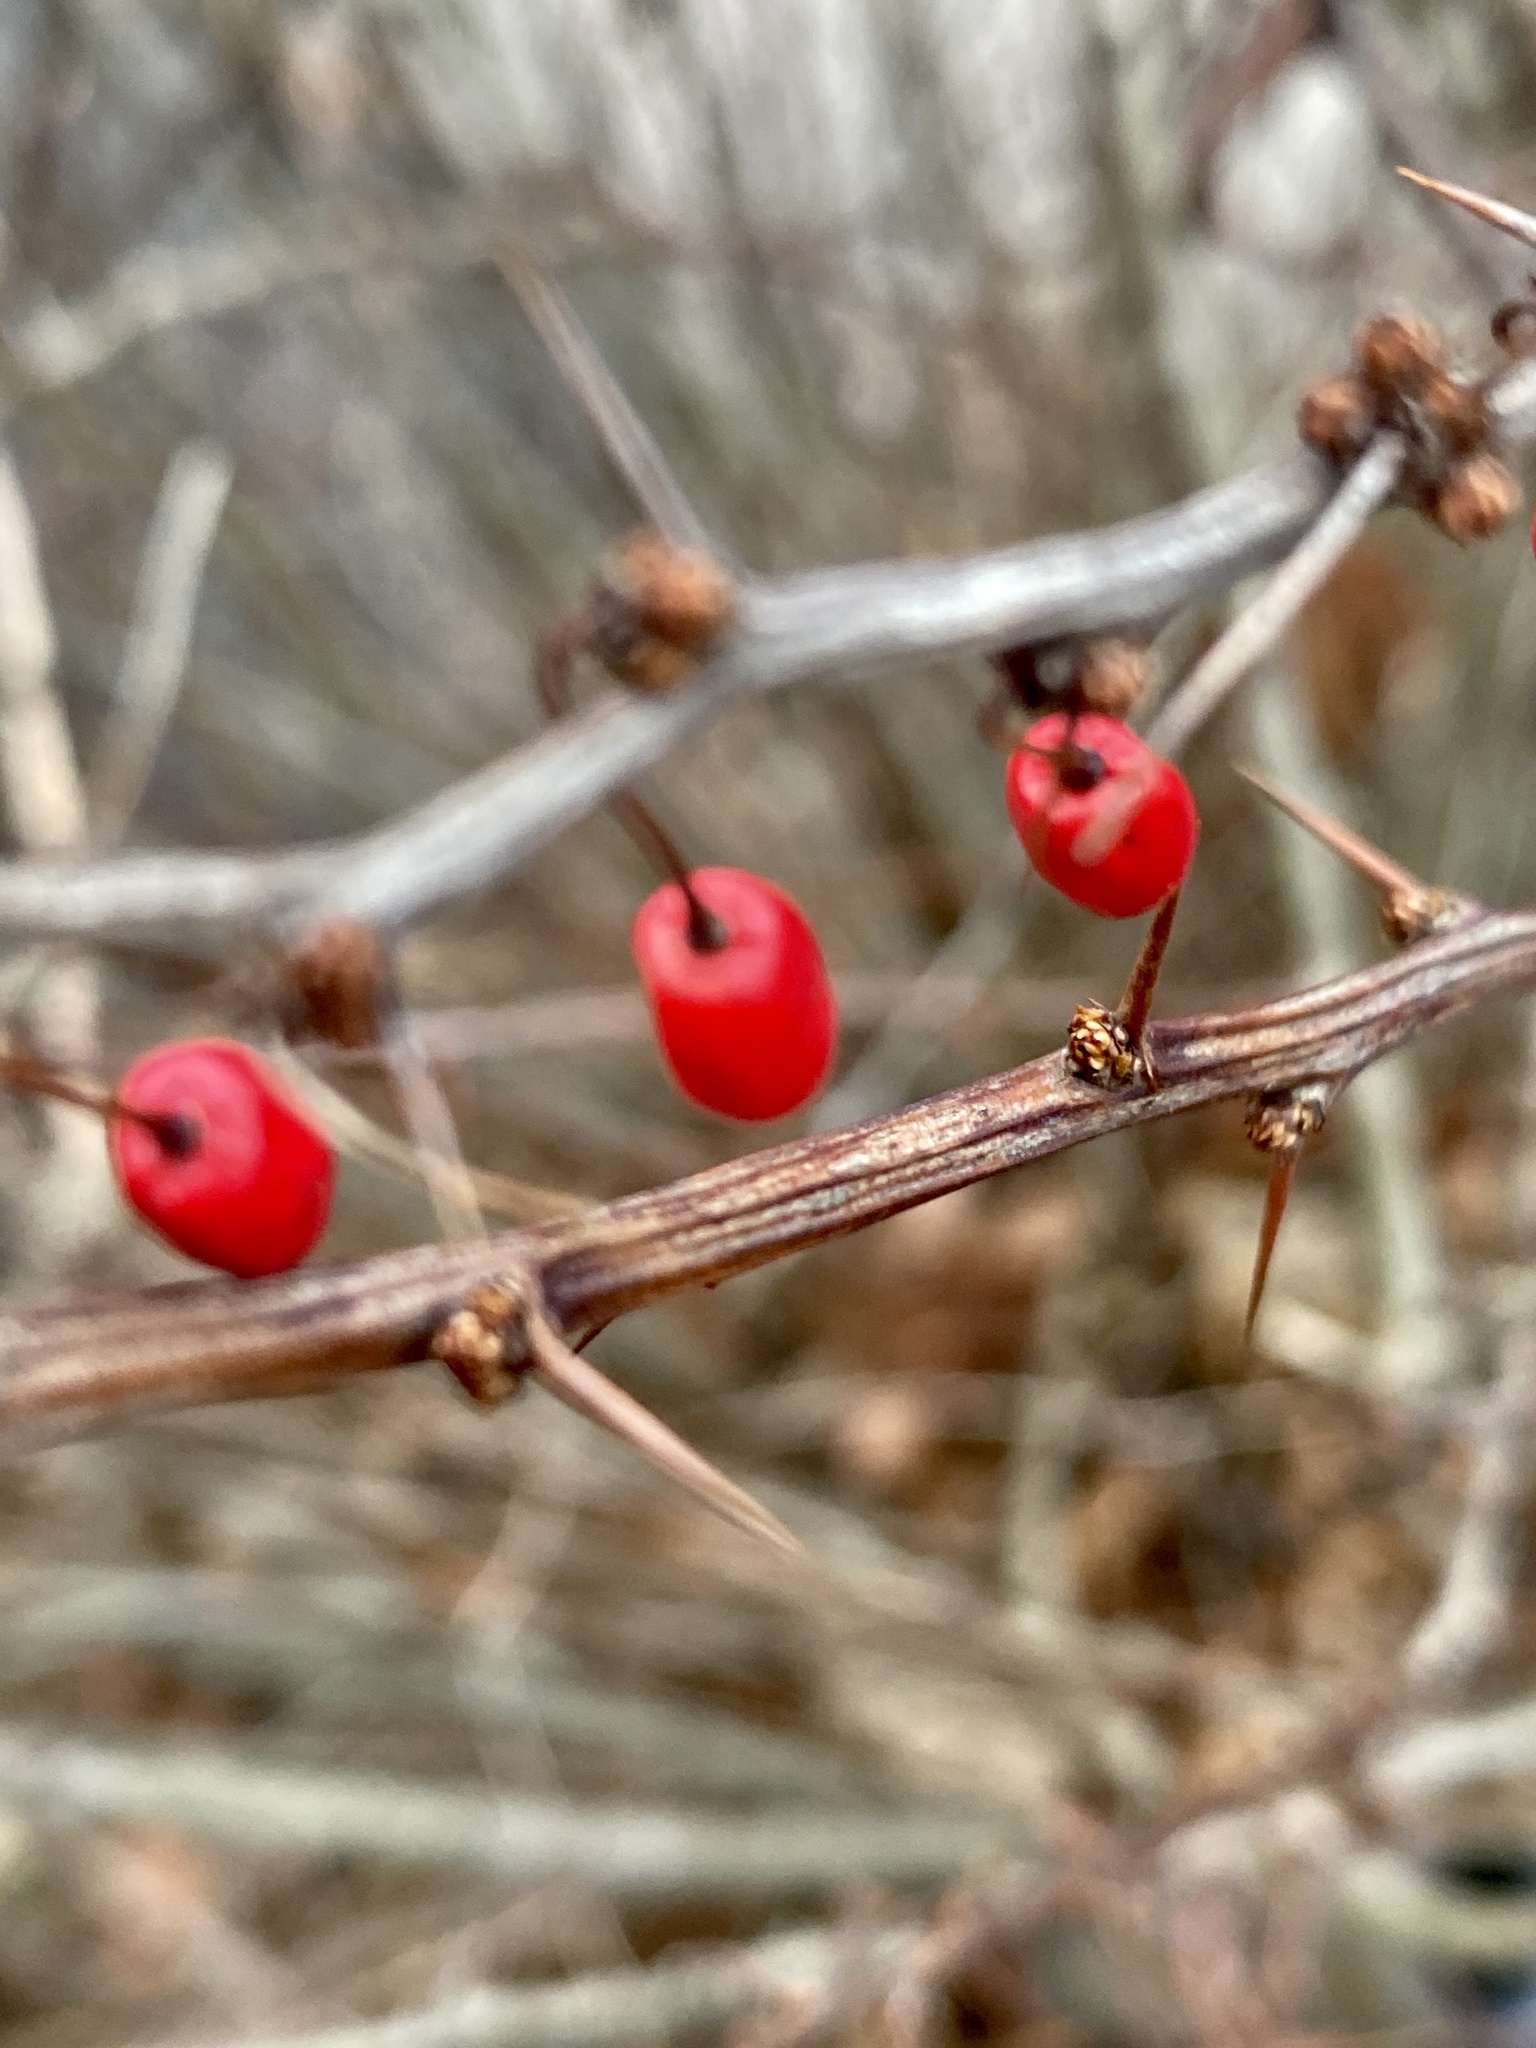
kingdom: Plantae
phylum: Tracheophyta
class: Magnoliopsida
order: Ranunculales
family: Berberidaceae
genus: Berberis
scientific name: Berberis thunbergii
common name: Japanese barberry
